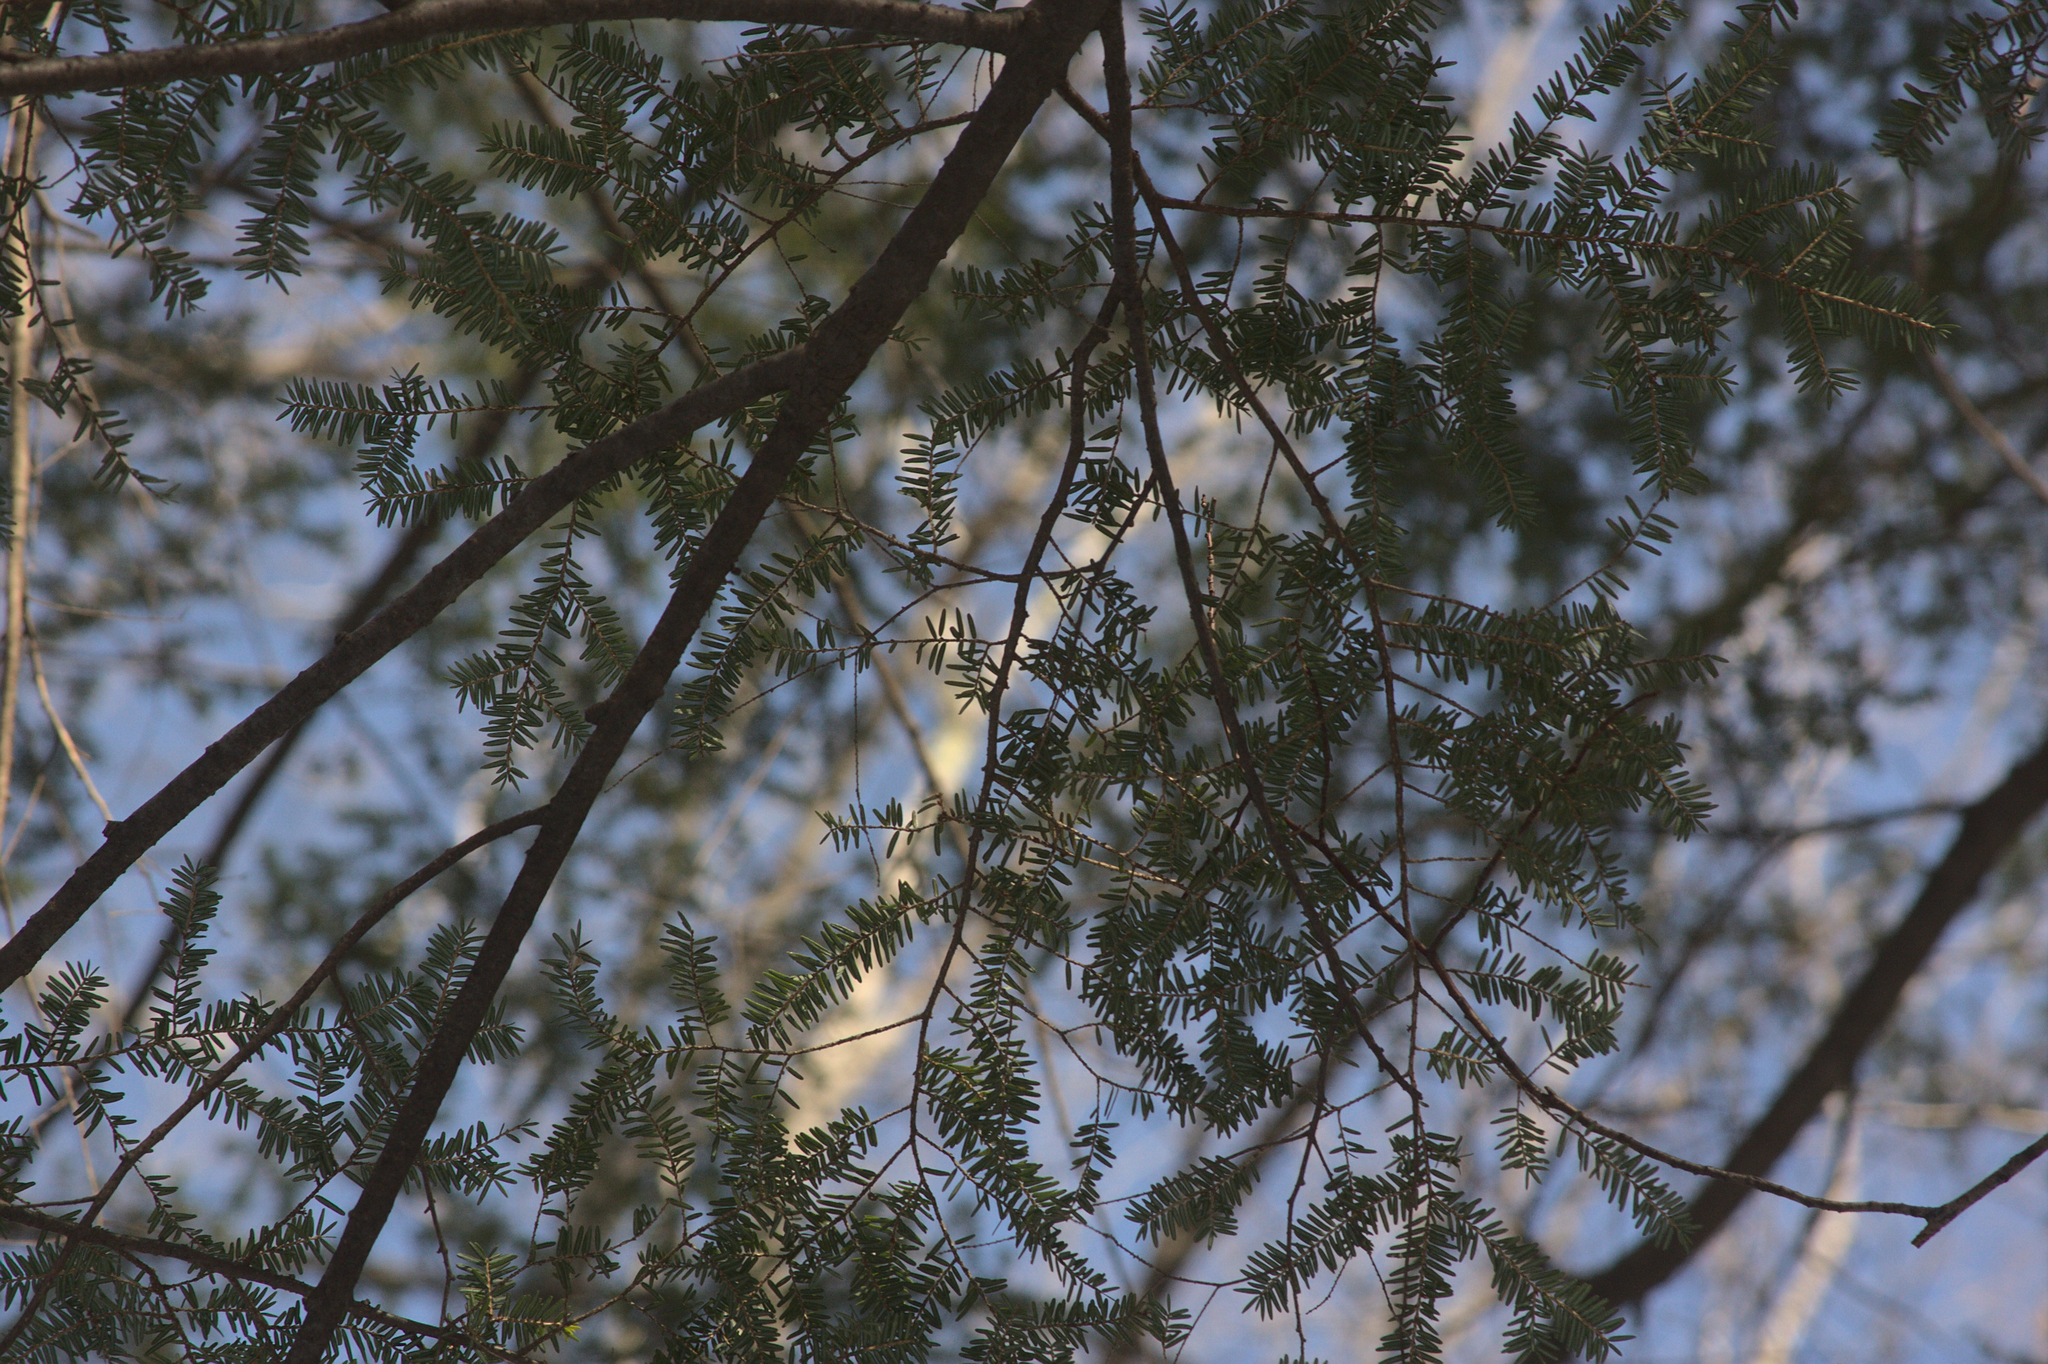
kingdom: Plantae
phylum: Tracheophyta
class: Pinopsida
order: Pinales
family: Pinaceae
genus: Tsuga
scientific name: Tsuga canadensis
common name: Eastern hemlock
